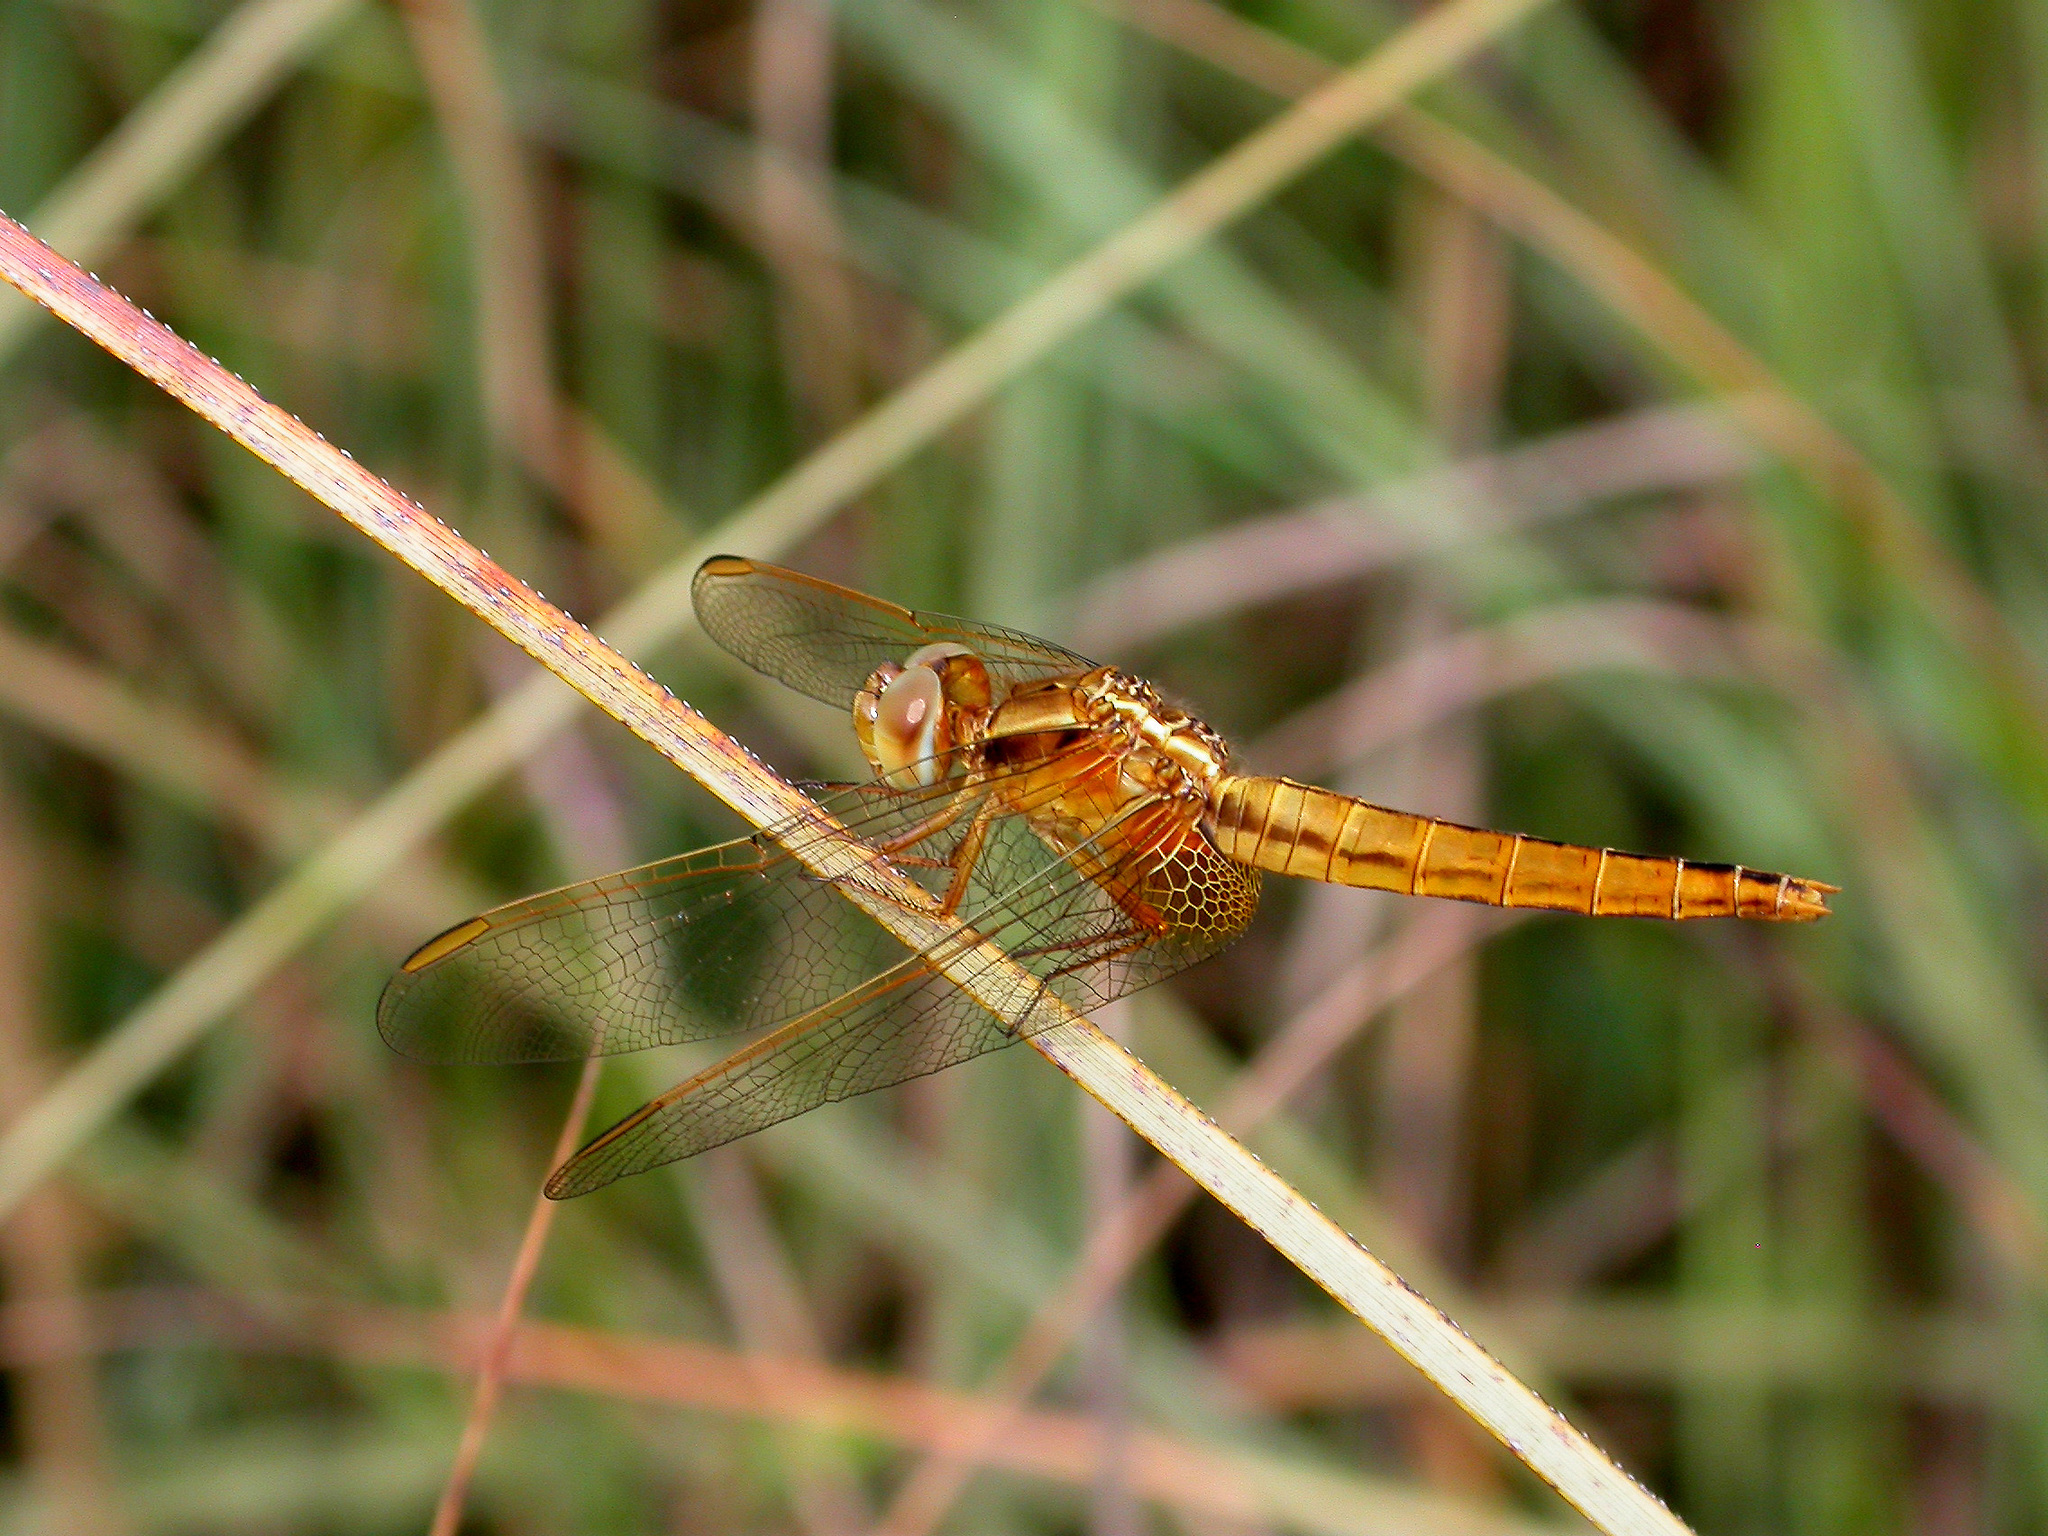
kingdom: Animalia
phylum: Arthropoda
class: Insecta
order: Odonata
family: Libellulidae
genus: Crocothemis
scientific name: Crocothemis erythraea
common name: Scarlet dragonfly
